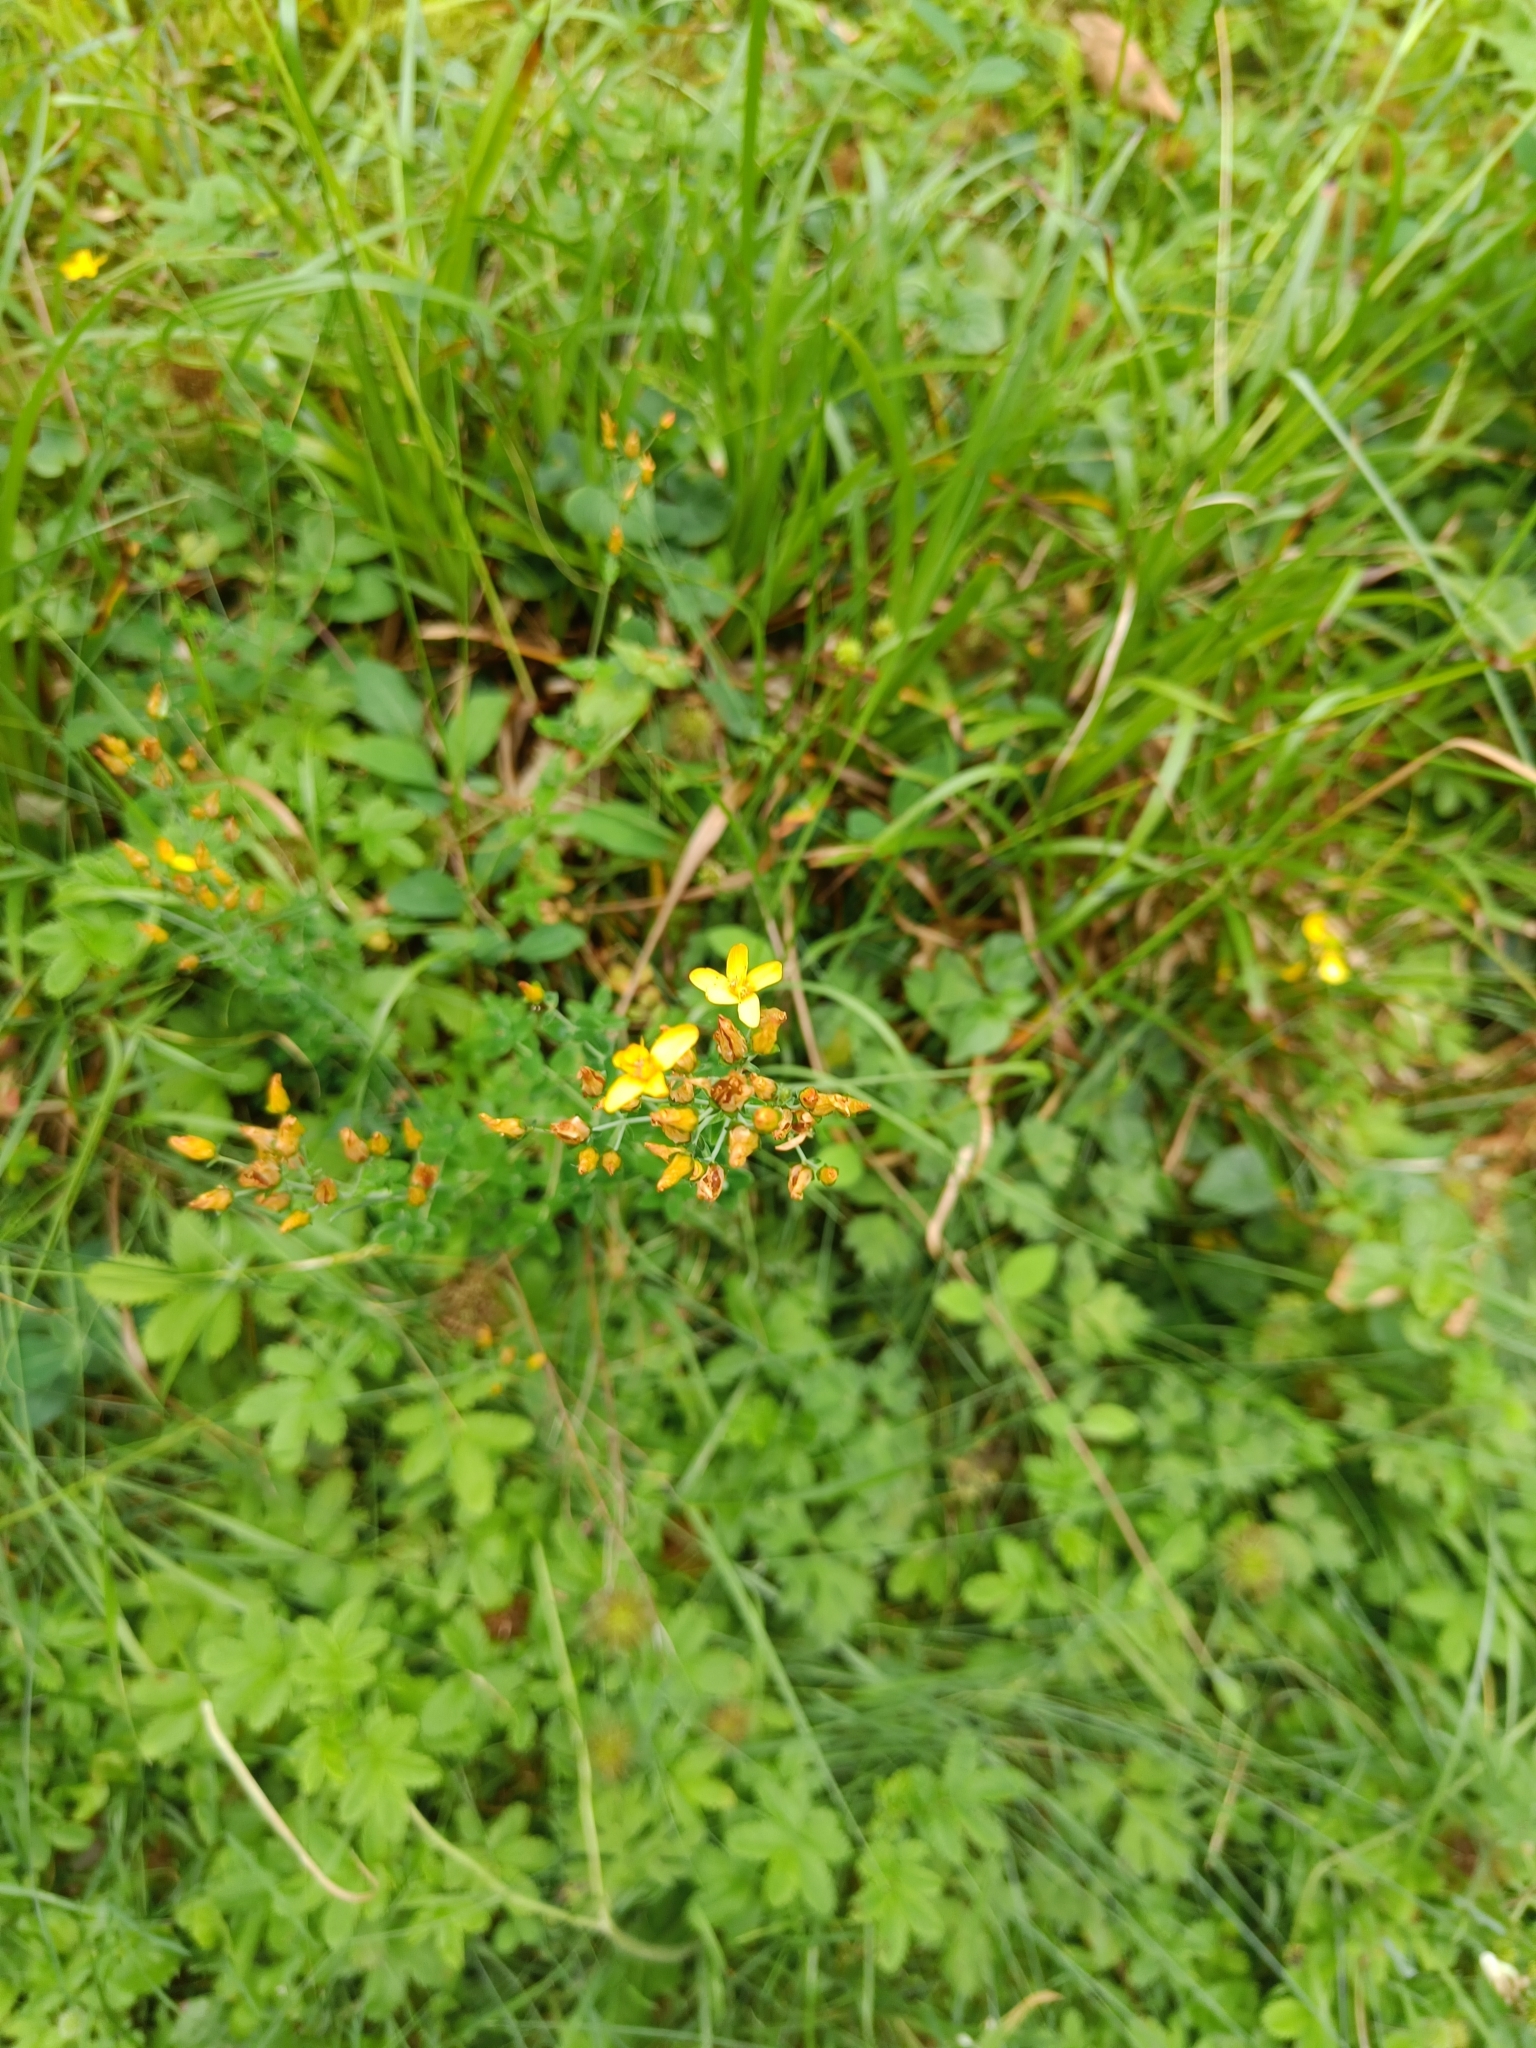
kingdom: Plantae
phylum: Tracheophyta
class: Magnoliopsida
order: Malpighiales
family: Hypericaceae
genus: Hypericum
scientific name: Hypericum pulchrum
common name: Slender st. john's-wort
